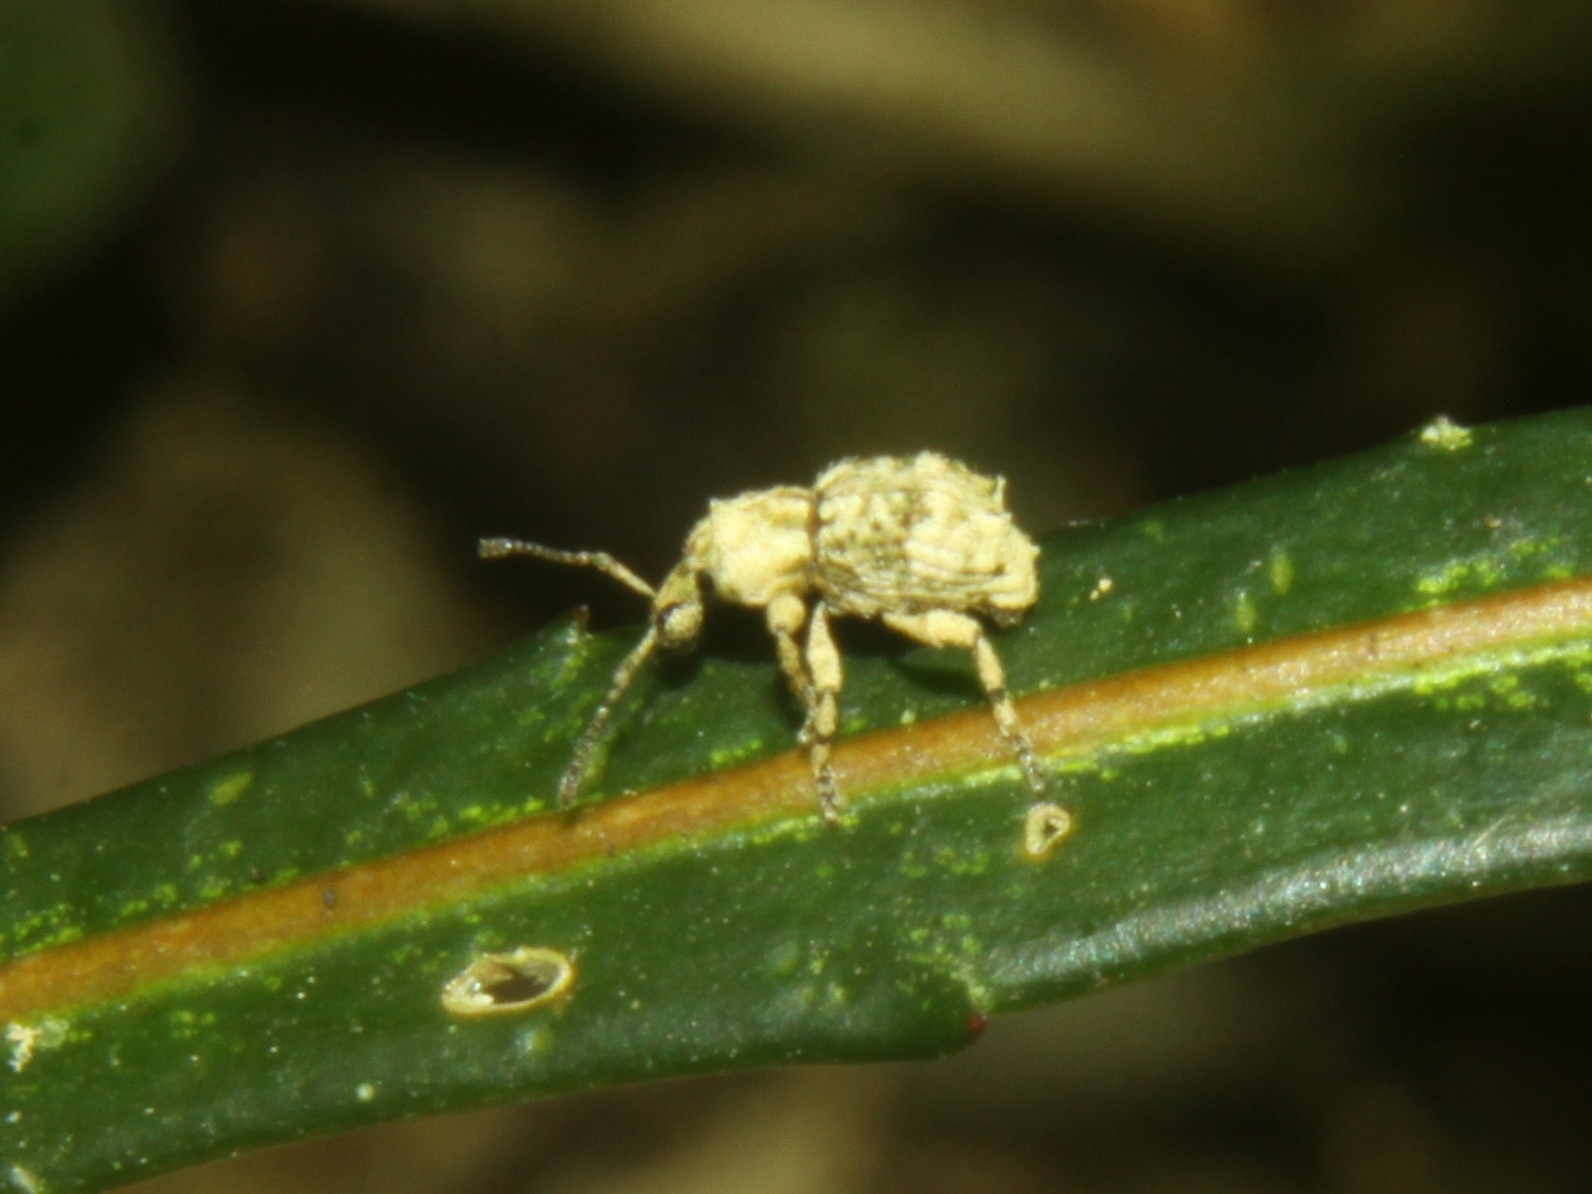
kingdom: Animalia
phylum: Arthropoda
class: Insecta
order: Coleoptera
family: Curculionidae
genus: Brachyolus
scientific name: Brachyolus punctatus
